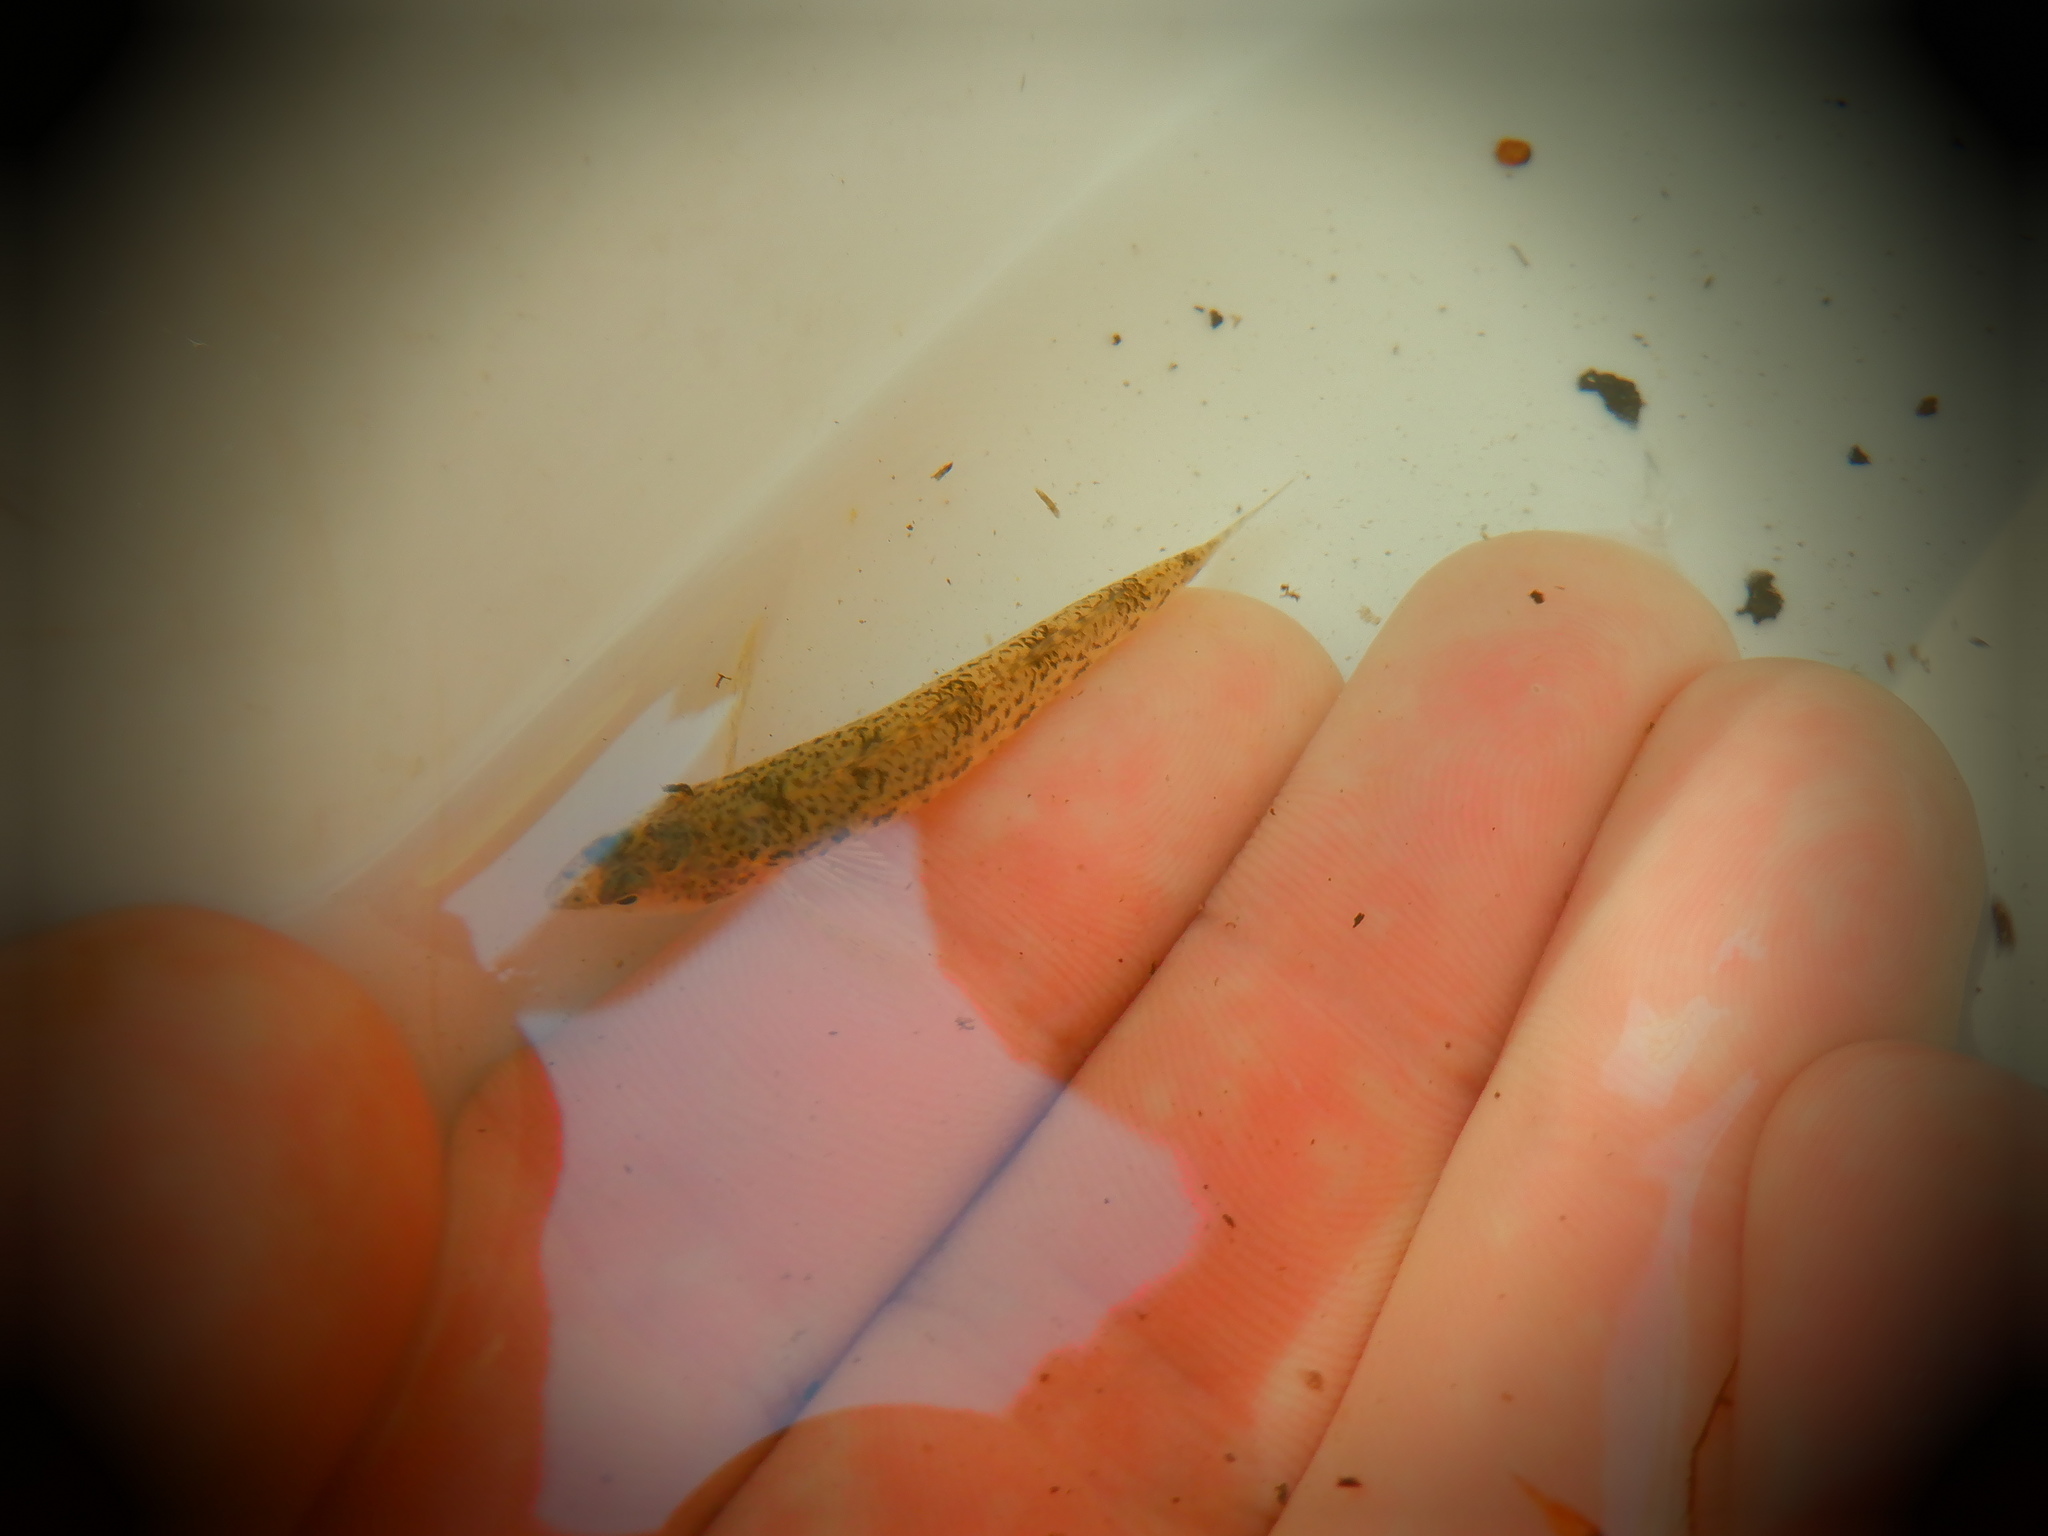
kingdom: Animalia
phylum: Chordata
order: Perciformes
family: Percidae
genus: Etheostoma
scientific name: Etheostoma nigrum
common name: Johnny darter
